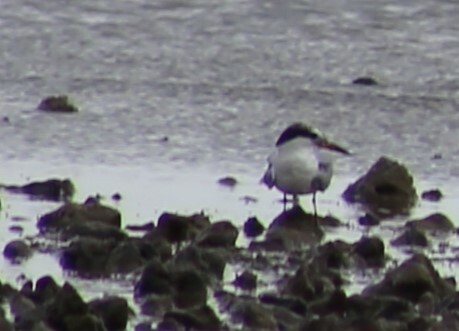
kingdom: Animalia
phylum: Chordata
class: Aves
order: Charadriiformes
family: Laridae
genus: Sternula
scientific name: Sternula albifrons
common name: Little tern
